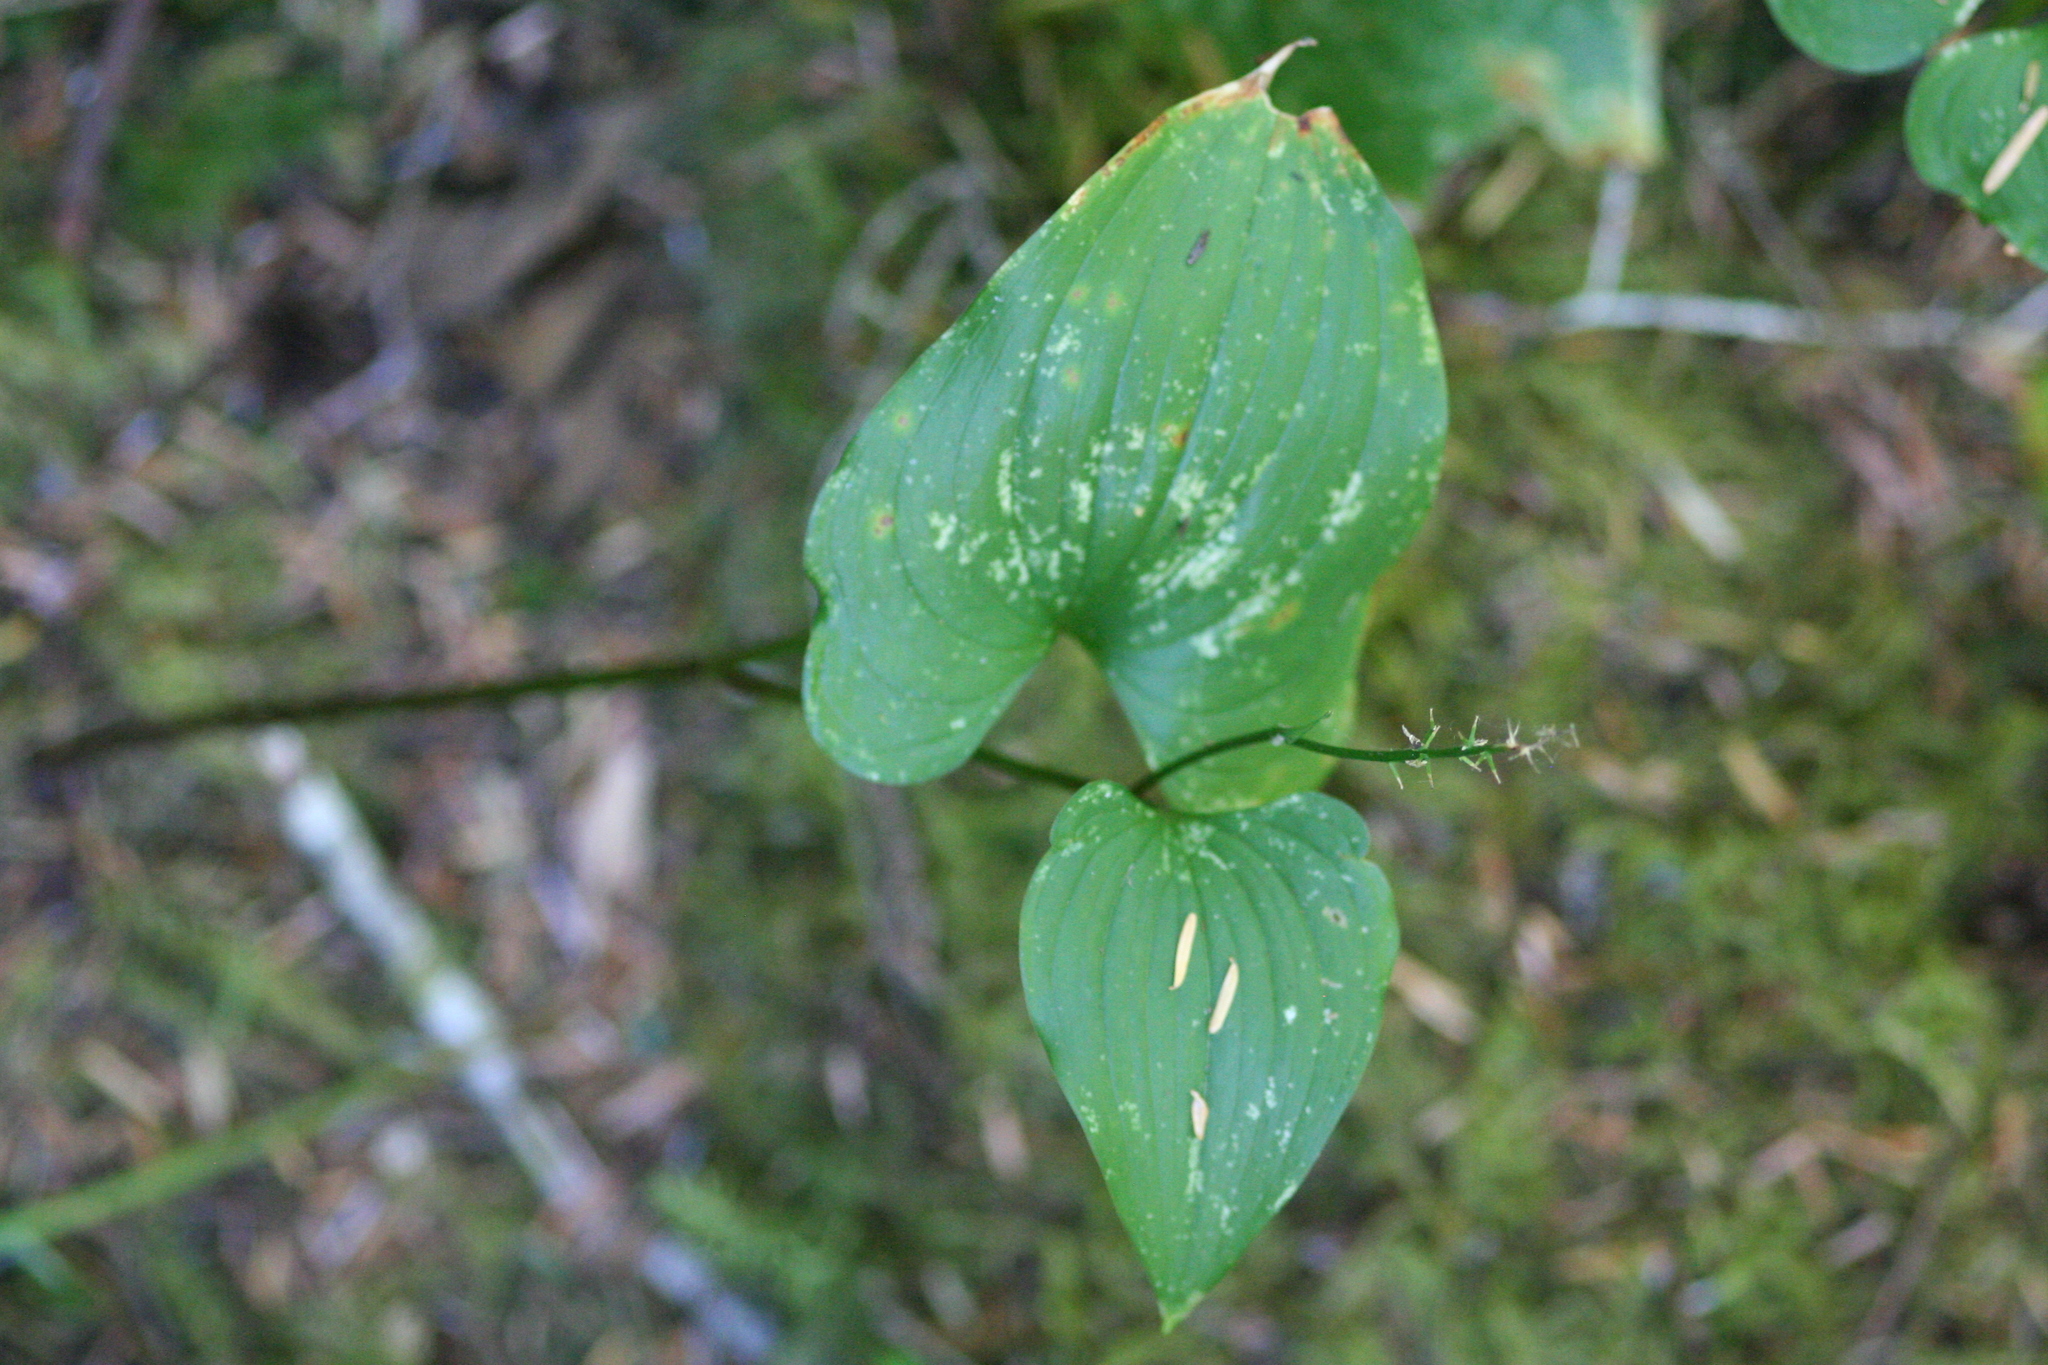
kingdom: Plantae
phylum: Tracheophyta
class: Liliopsida
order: Asparagales
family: Asparagaceae
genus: Maianthemum
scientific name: Maianthemum dilatatum
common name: False lily-of-the-valley
